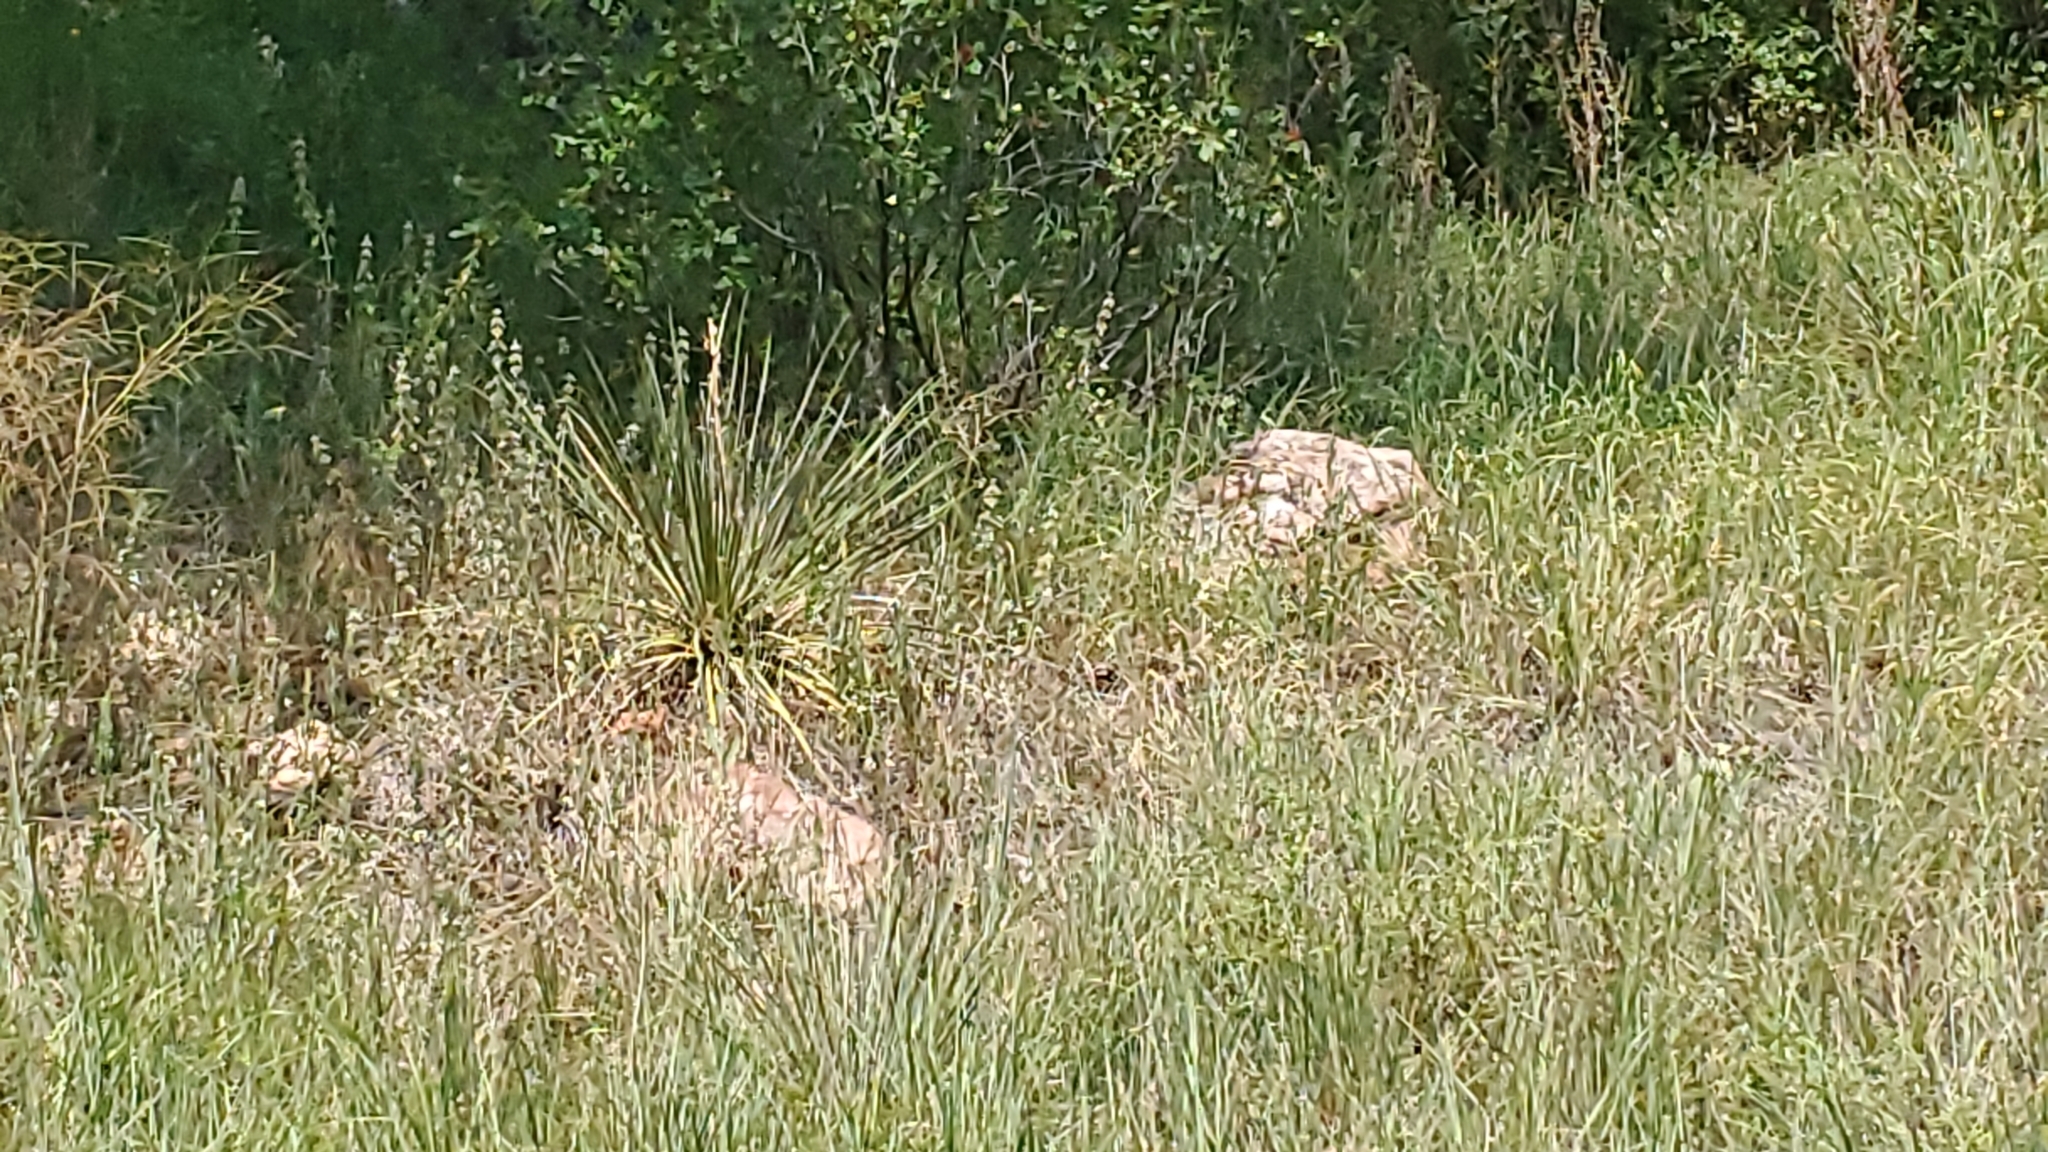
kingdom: Plantae
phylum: Tracheophyta
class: Liliopsida
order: Asparagales
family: Asparagaceae
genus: Yucca
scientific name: Yucca glauca
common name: Great plains yucca
